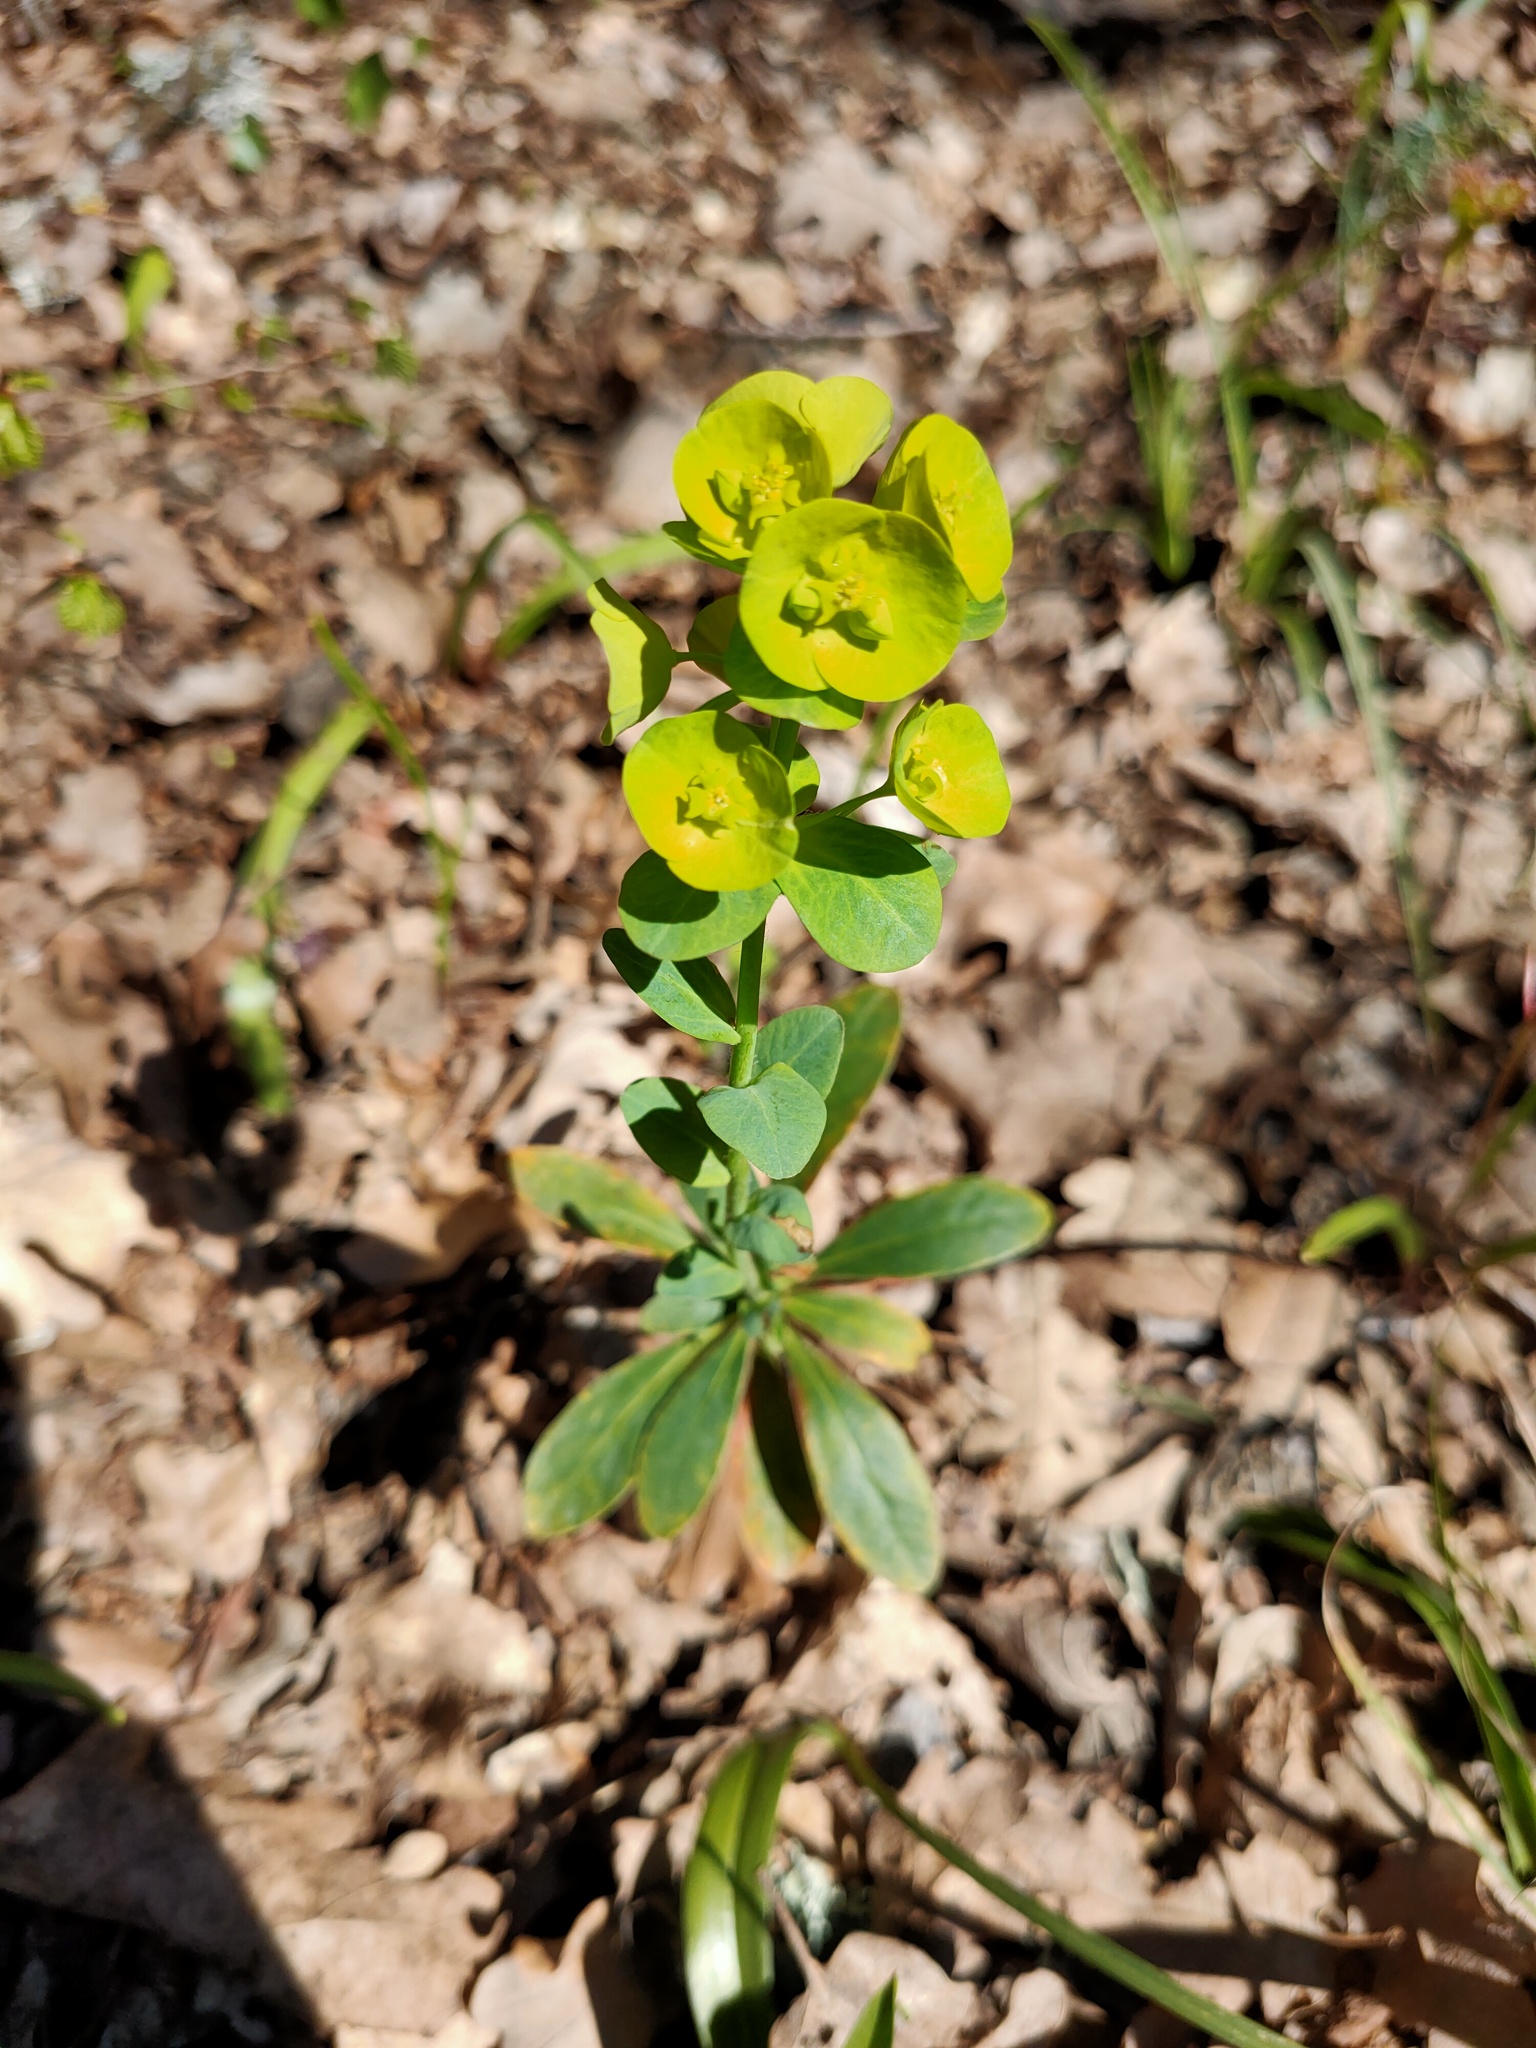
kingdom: Plantae
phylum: Tracheophyta
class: Magnoliopsida
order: Malpighiales
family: Euphorbiaceae
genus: Euphorbia
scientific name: Euphorbia amygdaloides
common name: Wood spurge
